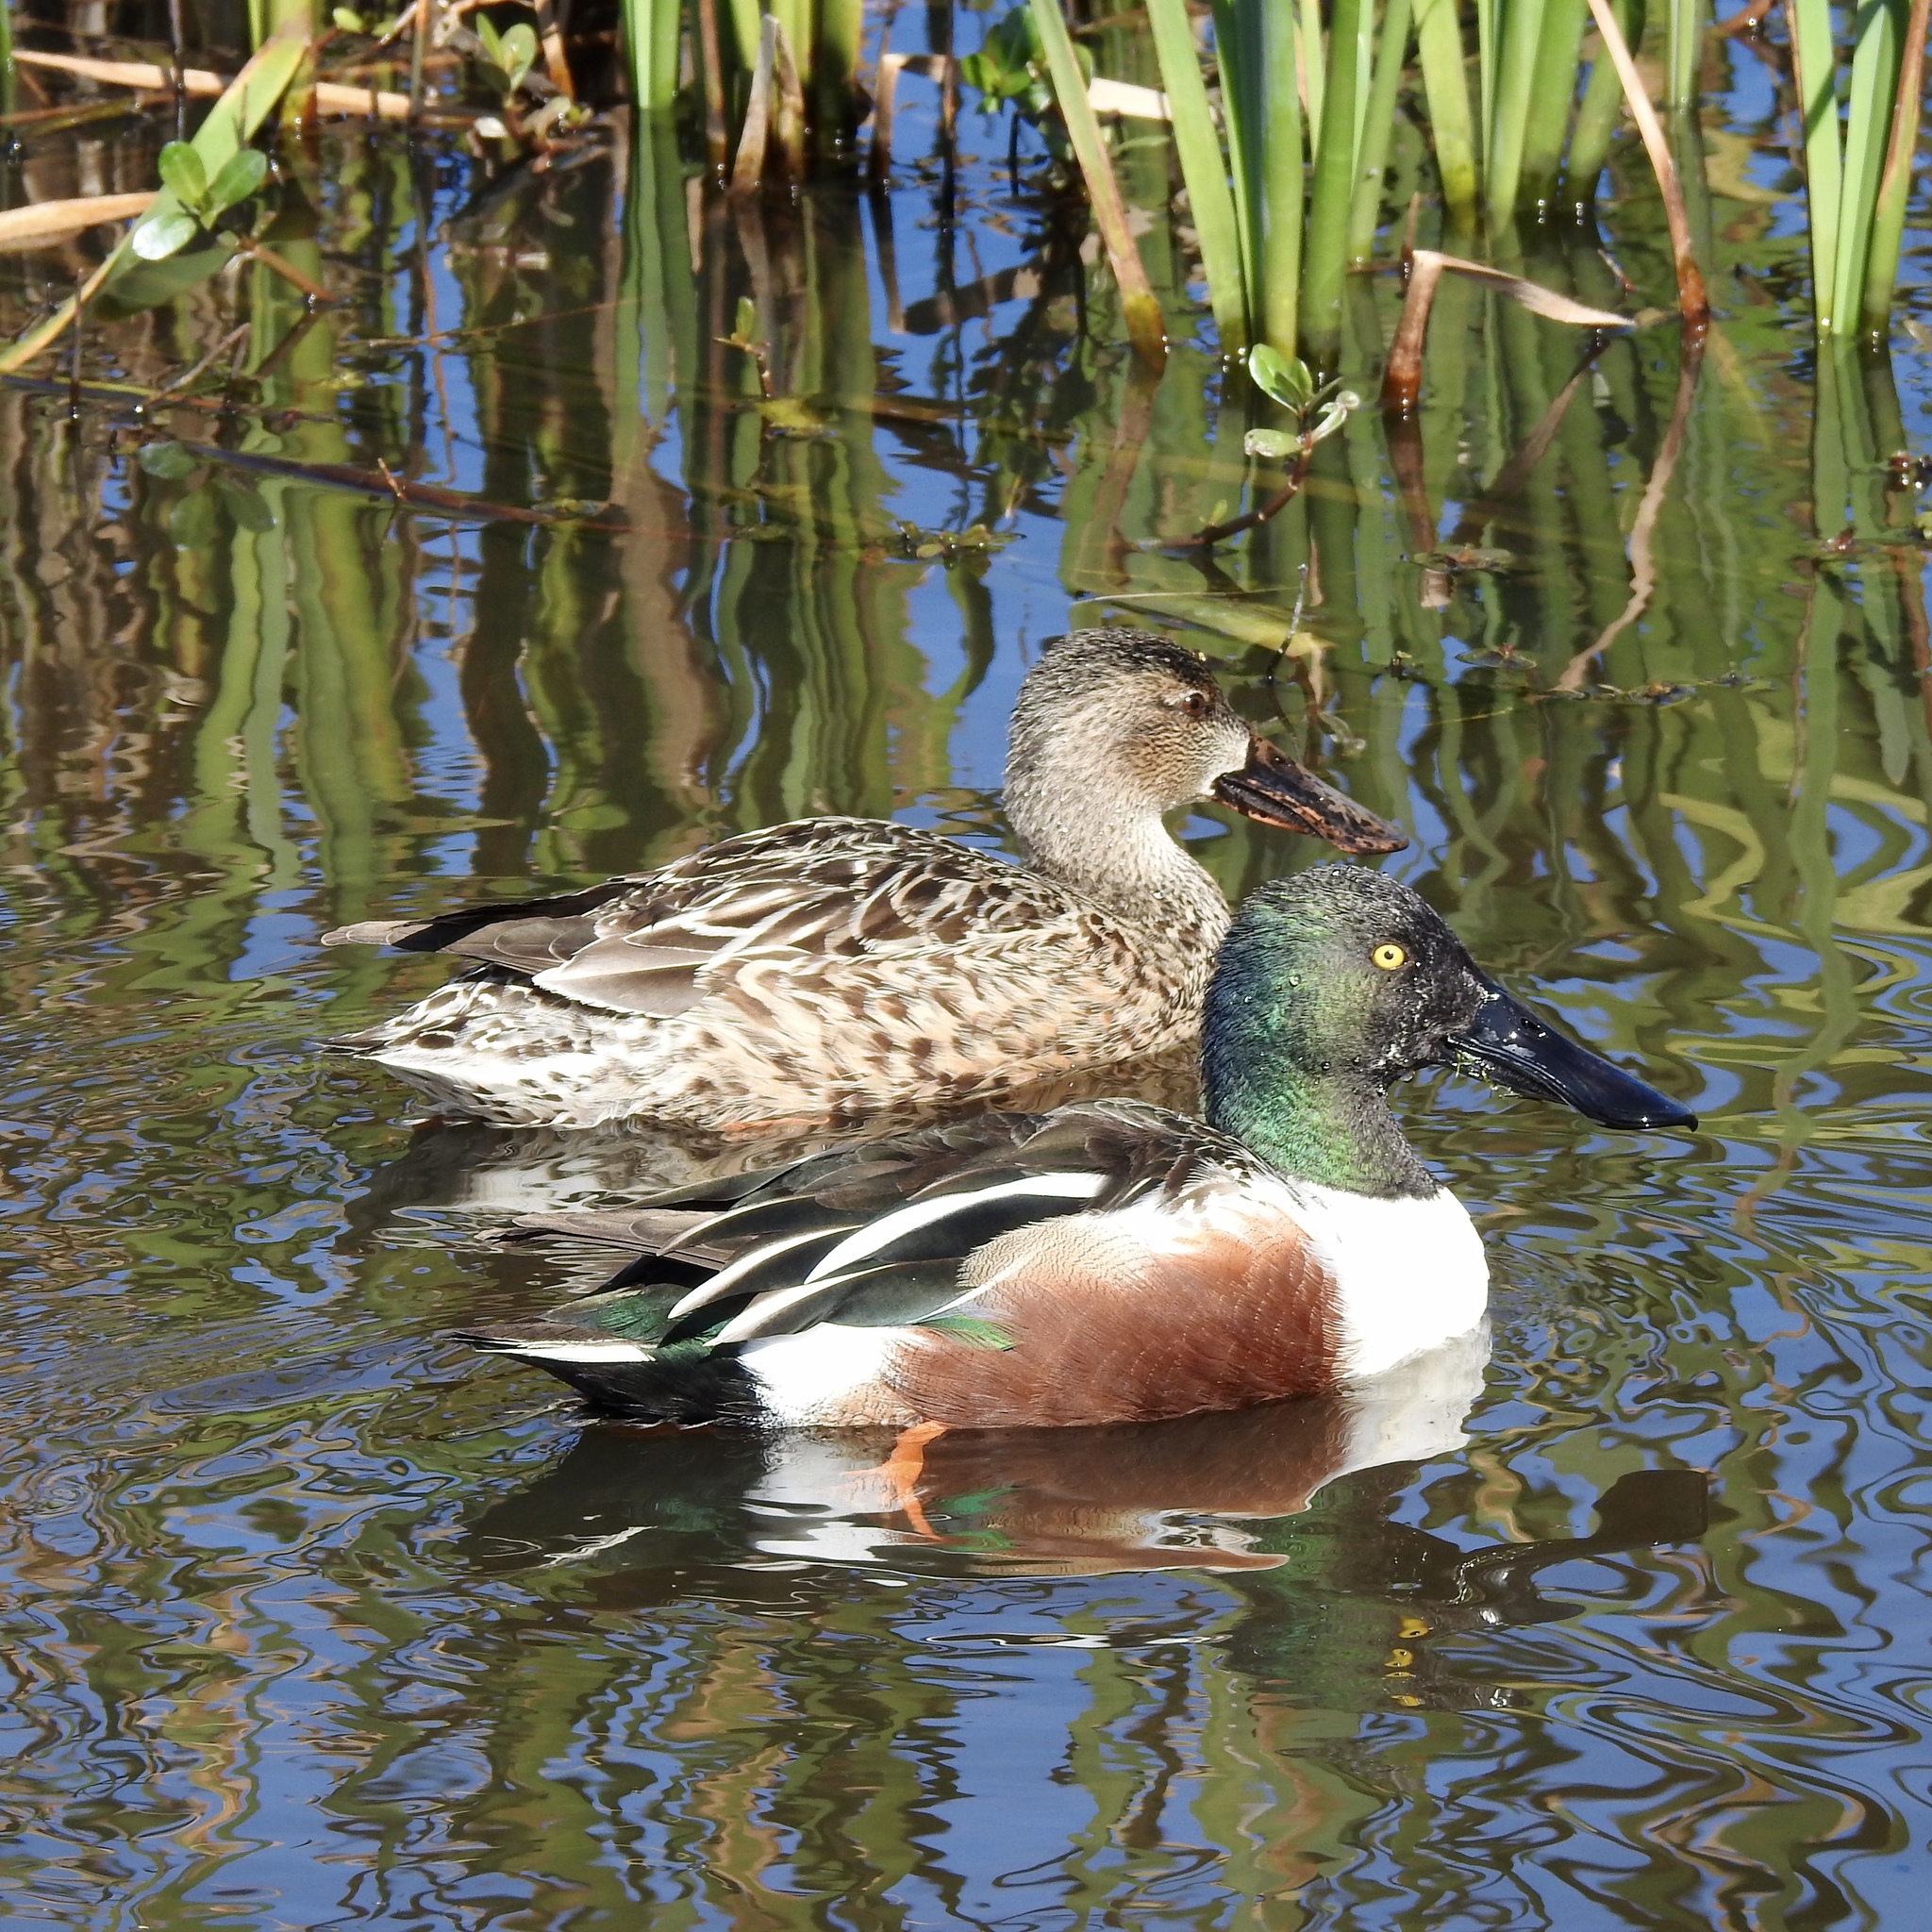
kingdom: Animalia
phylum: Chordata
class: Aves
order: Anseriformes
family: Anatidae
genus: Spatula
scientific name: Spatula clypeata
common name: Northern shoveler
